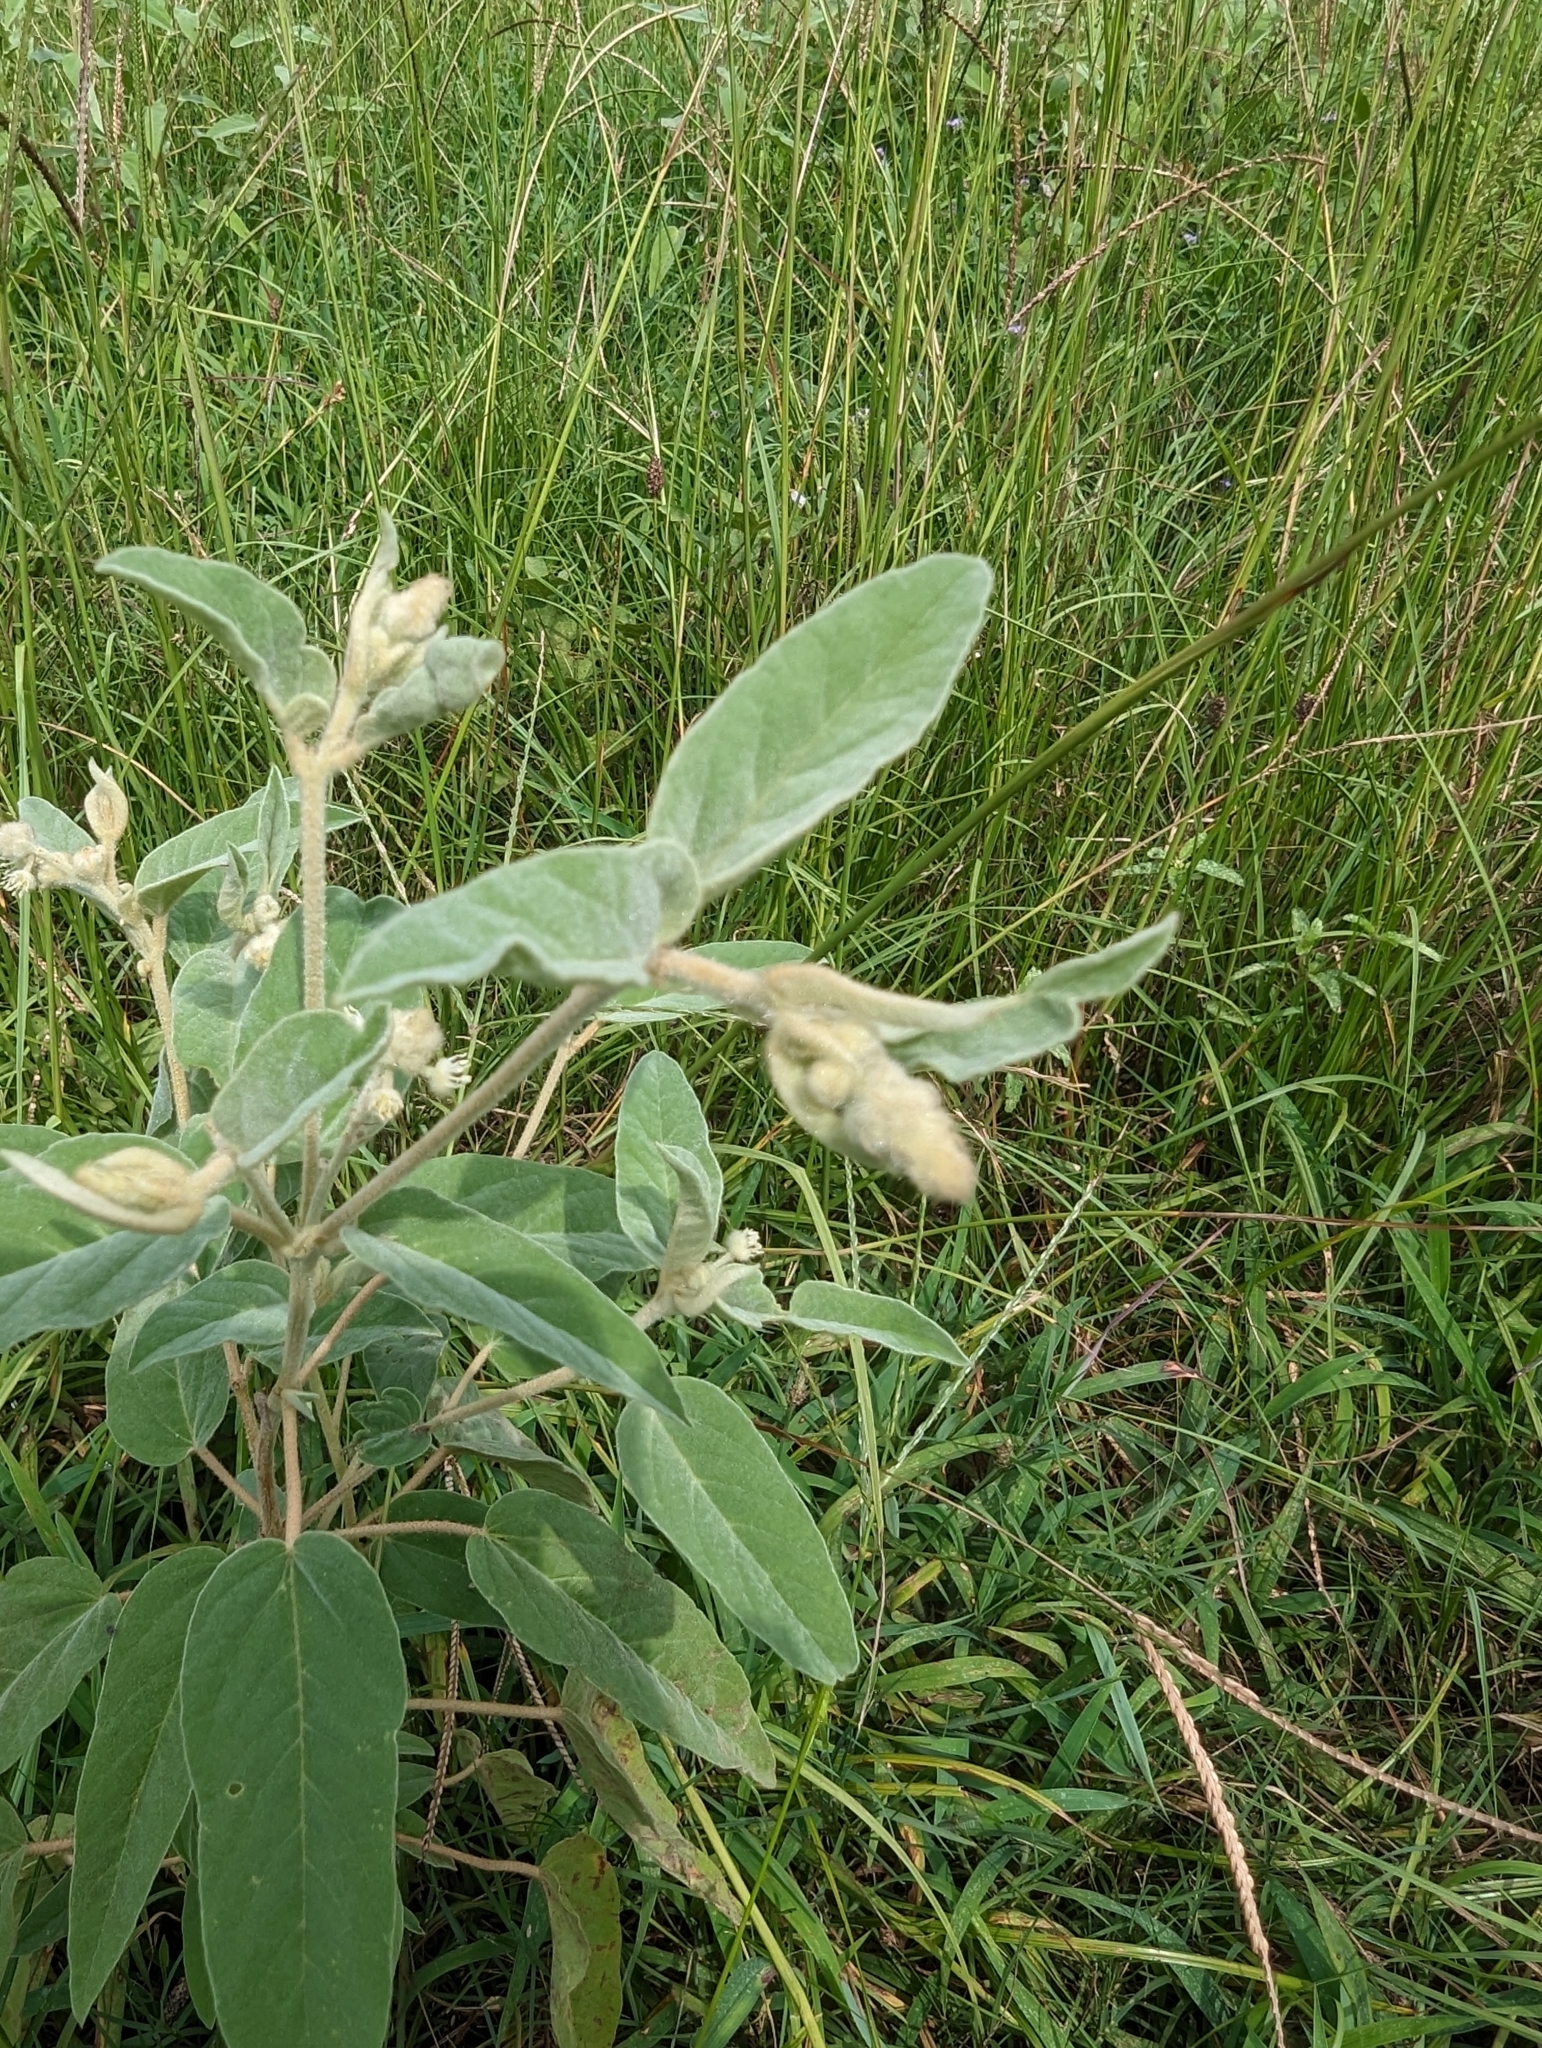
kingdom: Plantae
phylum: Tracheophyta
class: Magnoliopsida
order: Malpighiales
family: Euphorbiaceae
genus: Croton
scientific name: Croton lindheimeri
